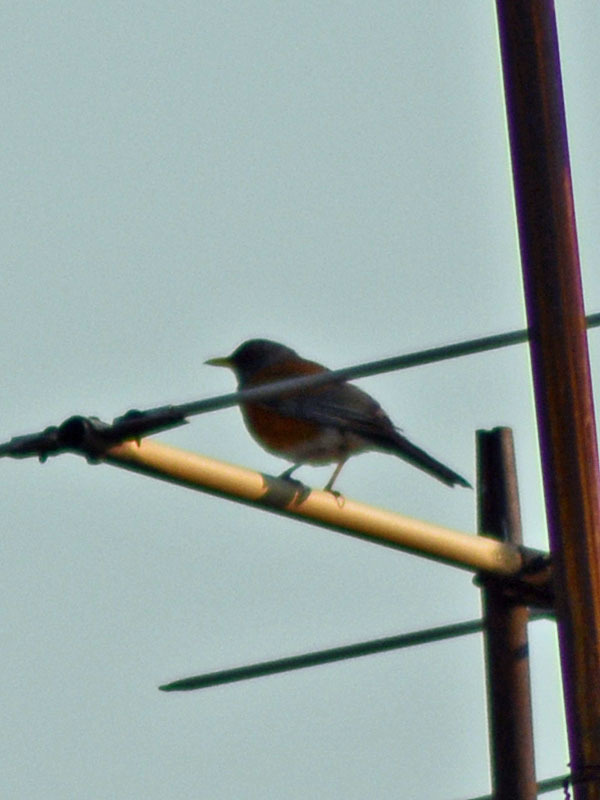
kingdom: Animalia
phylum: Chordata
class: Aves
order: Passeriformes
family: Turdidae
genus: Turdus
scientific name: Turdus rufopalliatus
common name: Rufous-backed robin
